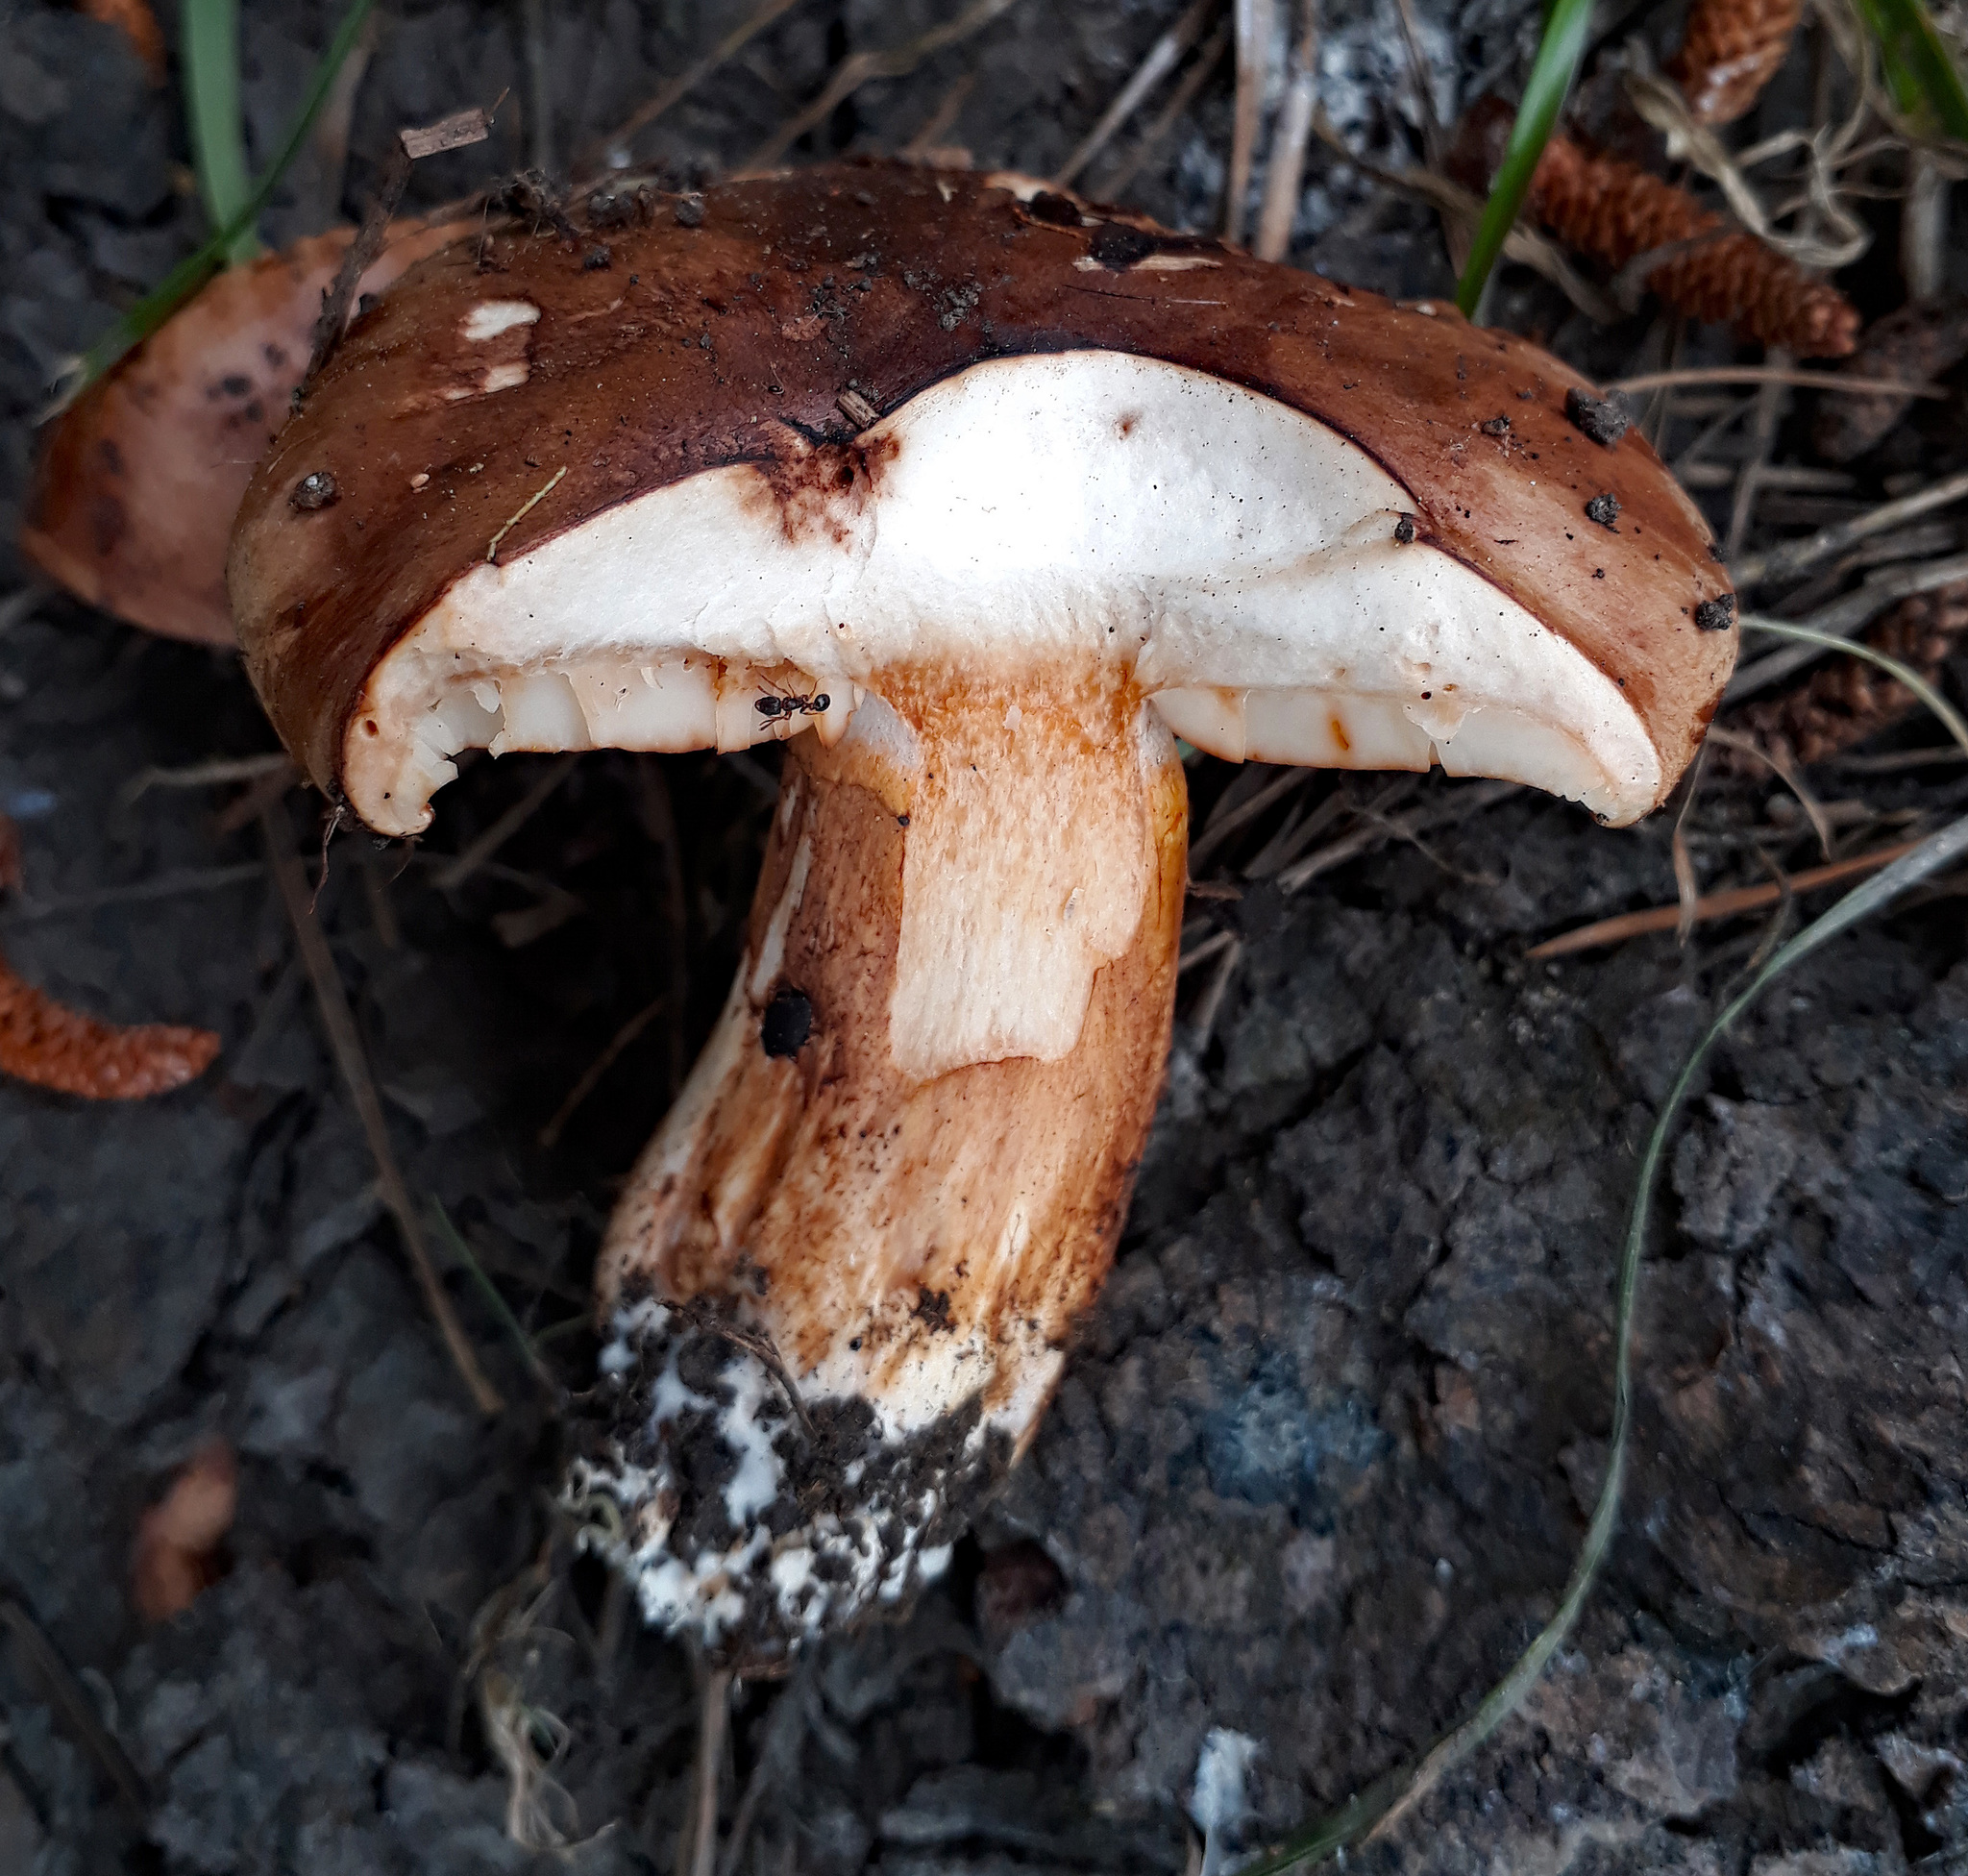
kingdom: Fungi
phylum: Basidiomycota
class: Agaricomycetes
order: Agaricales
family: Tricholomataceae
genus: Tricholoma
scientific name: Tricholoma batschii
